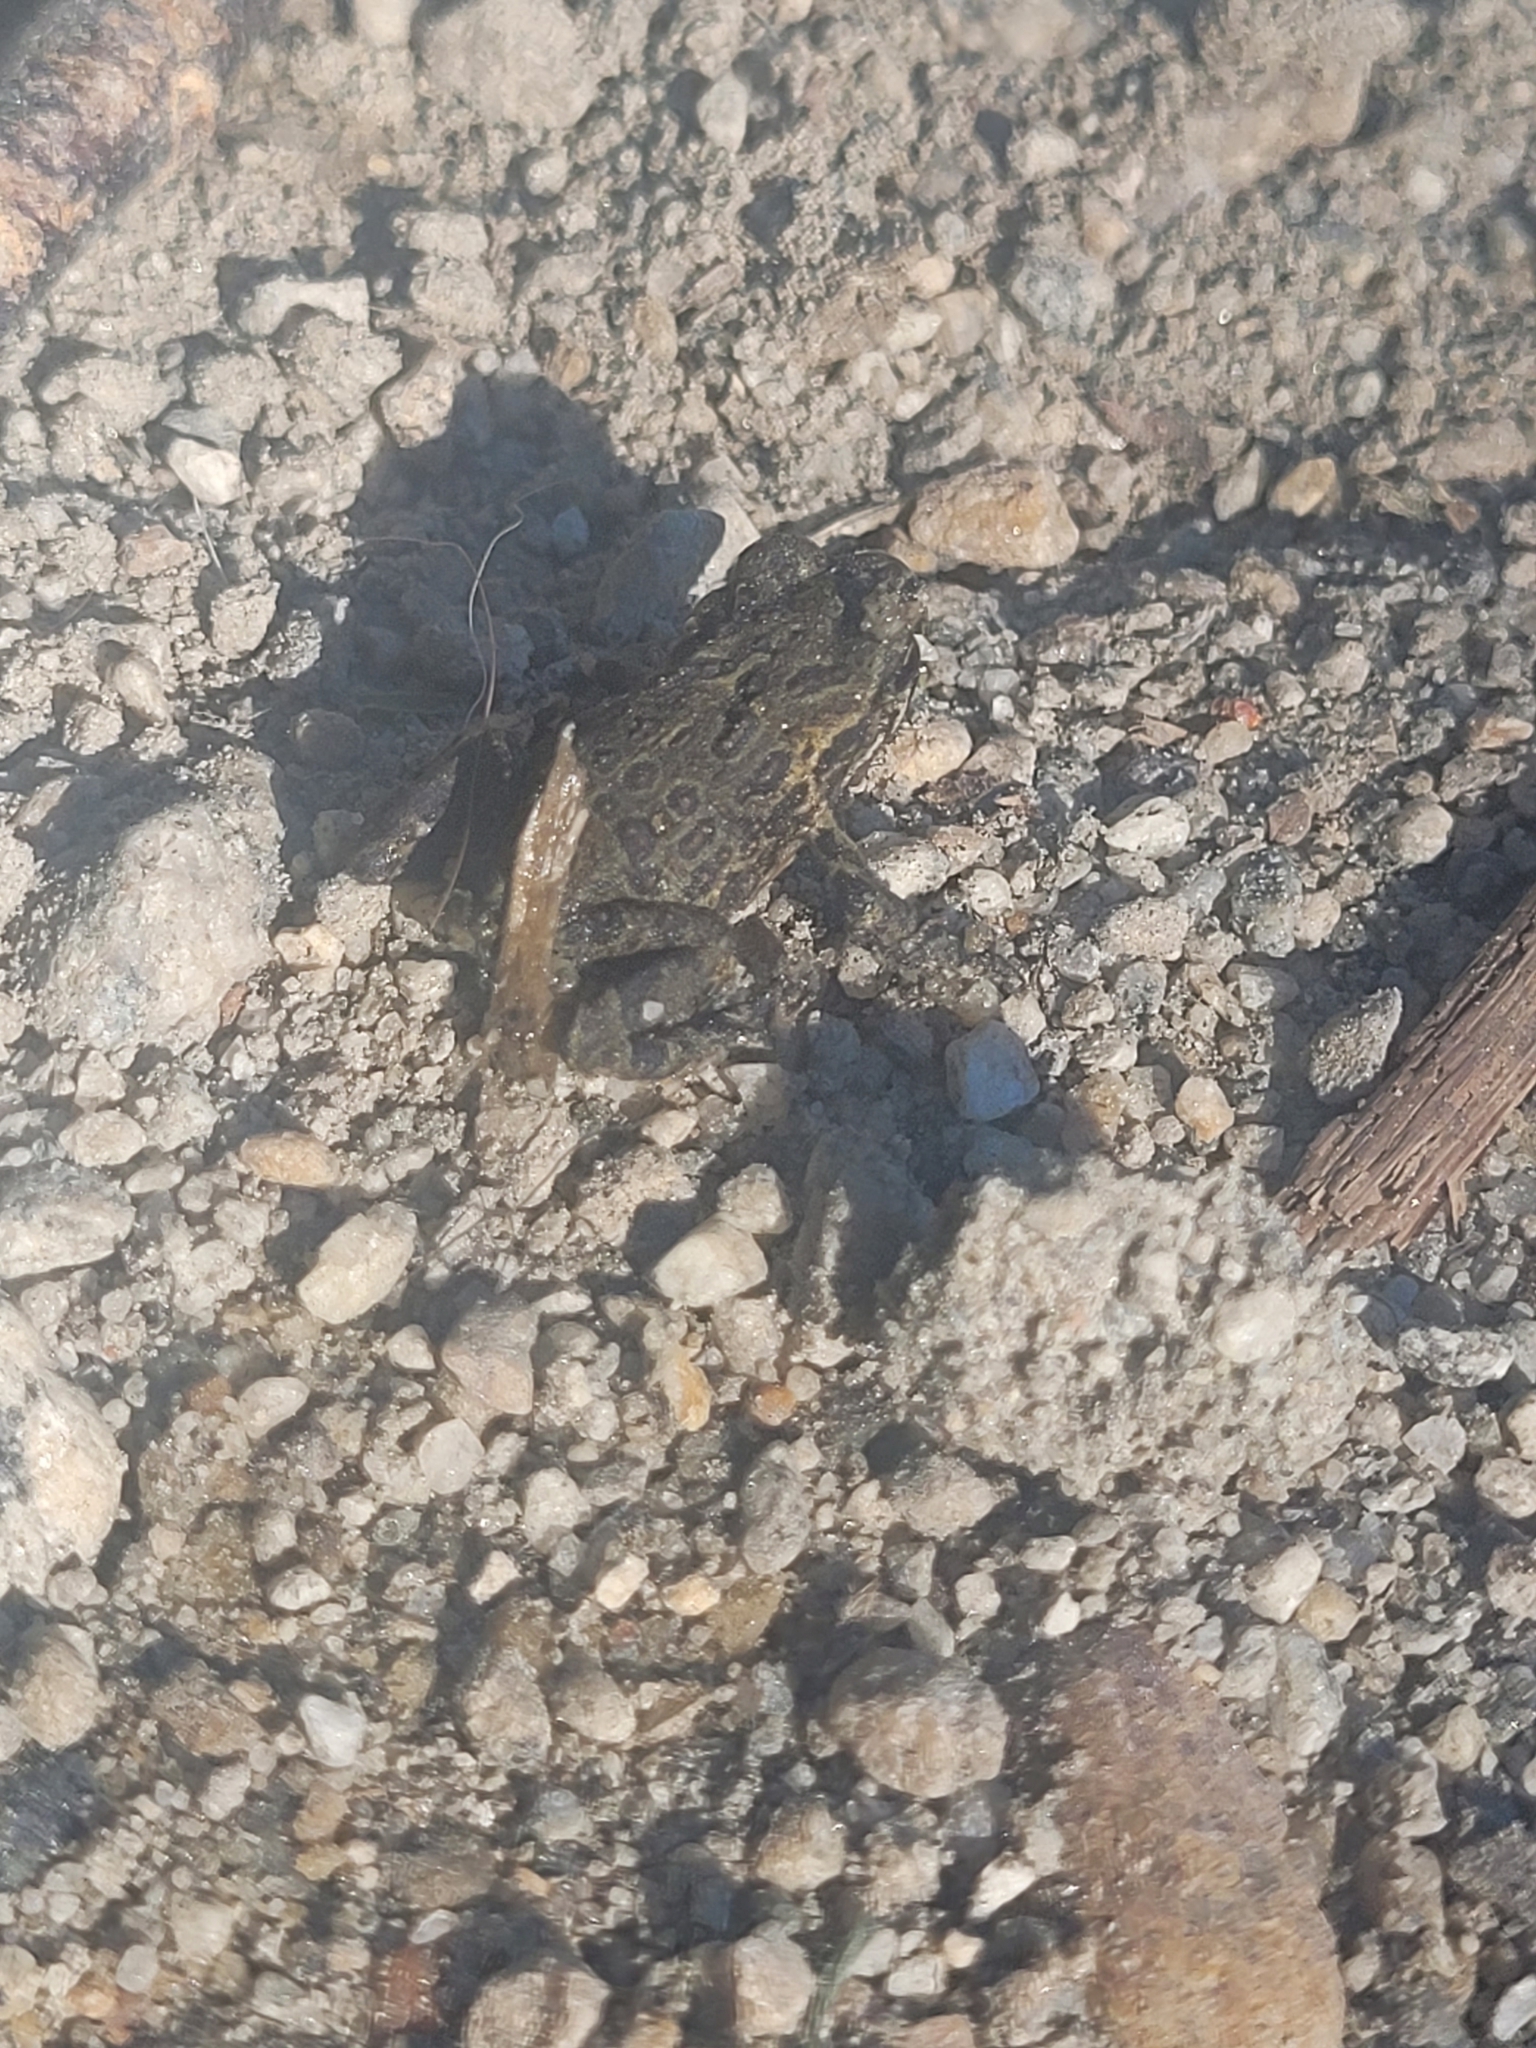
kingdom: Animalia
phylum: Chordata
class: Amphibia
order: Anura
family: Bufonidae
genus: Anaxyrus
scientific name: Anaxyrus boreas
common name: Western toad
